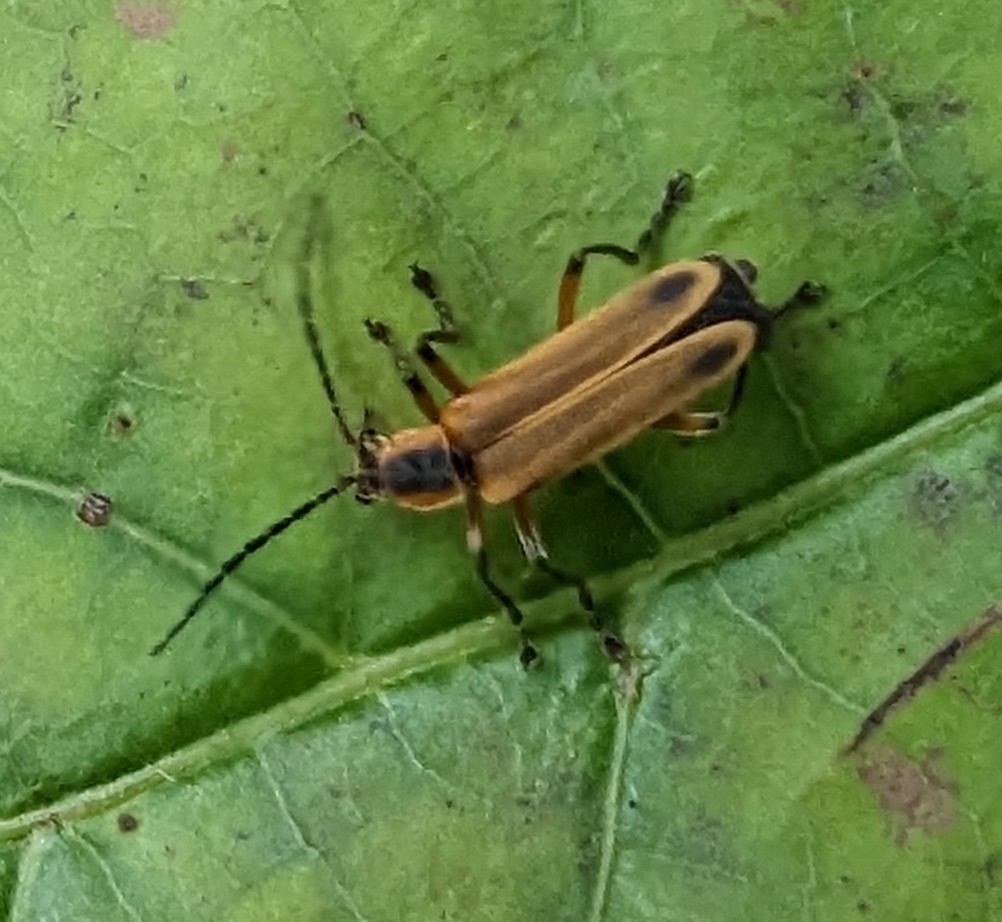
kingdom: Animalia
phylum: Arthropoda
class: Insecta
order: Coleoptera
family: Cantharidae
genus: Chauliognathus
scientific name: Chauliognathus marginatus
